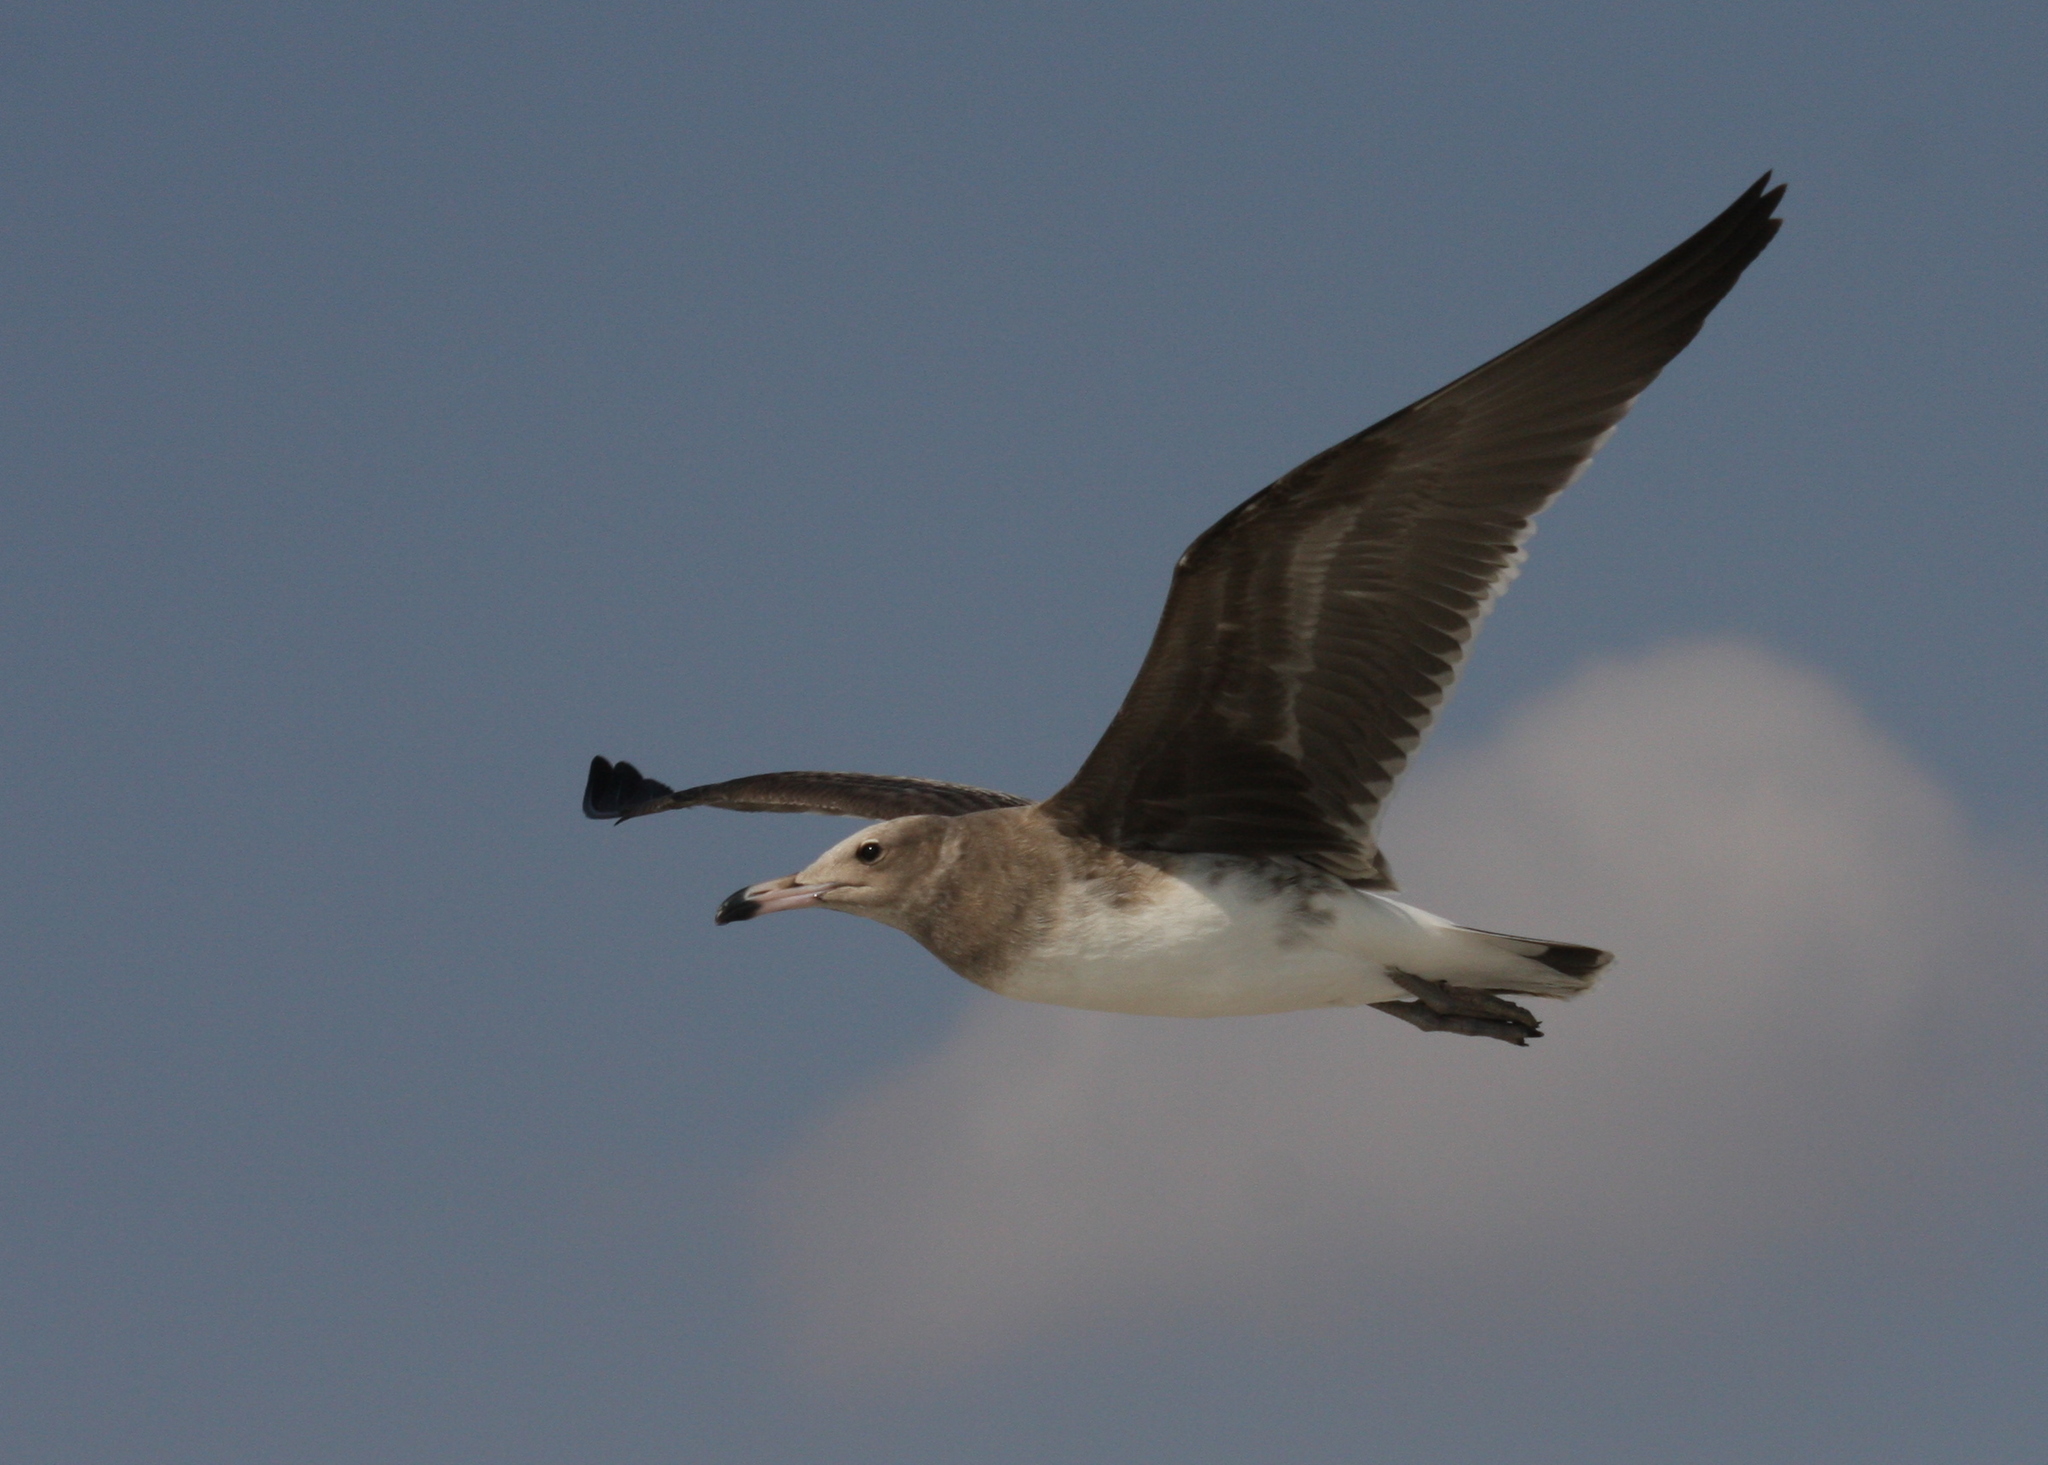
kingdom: Animalia
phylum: Chordata
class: Aves
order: Charadriiformes
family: Laridae
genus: Ichthyaetus
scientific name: Ichthyaetus hemprichii
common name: Sooty gull
